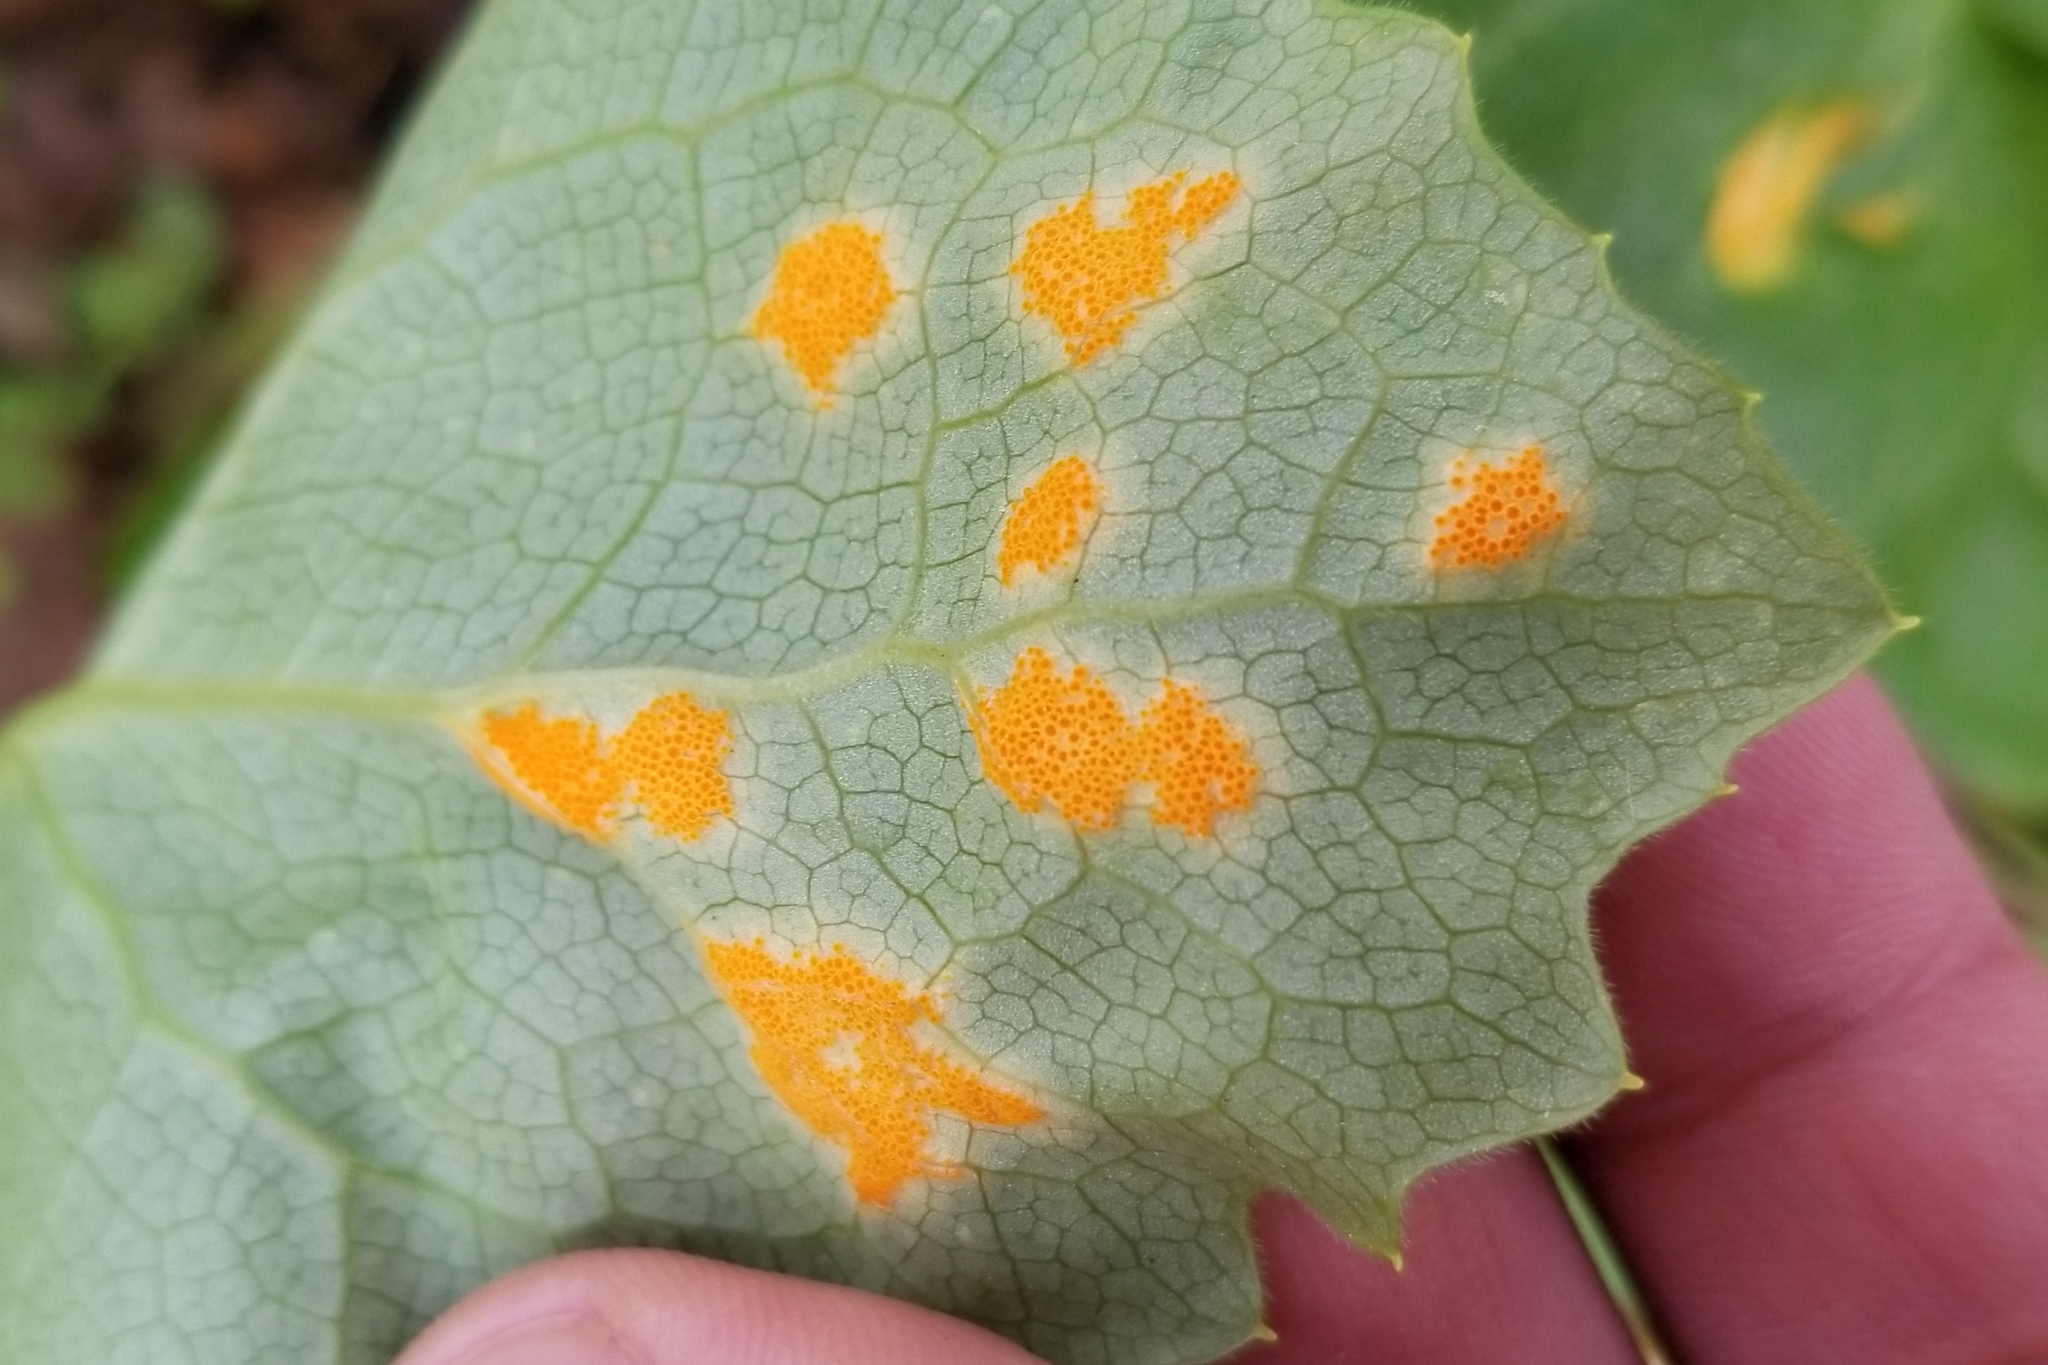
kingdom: Fungi
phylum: Basidiomycota
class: Pucciniomycetes
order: Pucciniales
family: Pucciniaceae
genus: Puccinia
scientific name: Puccinia podophylli
